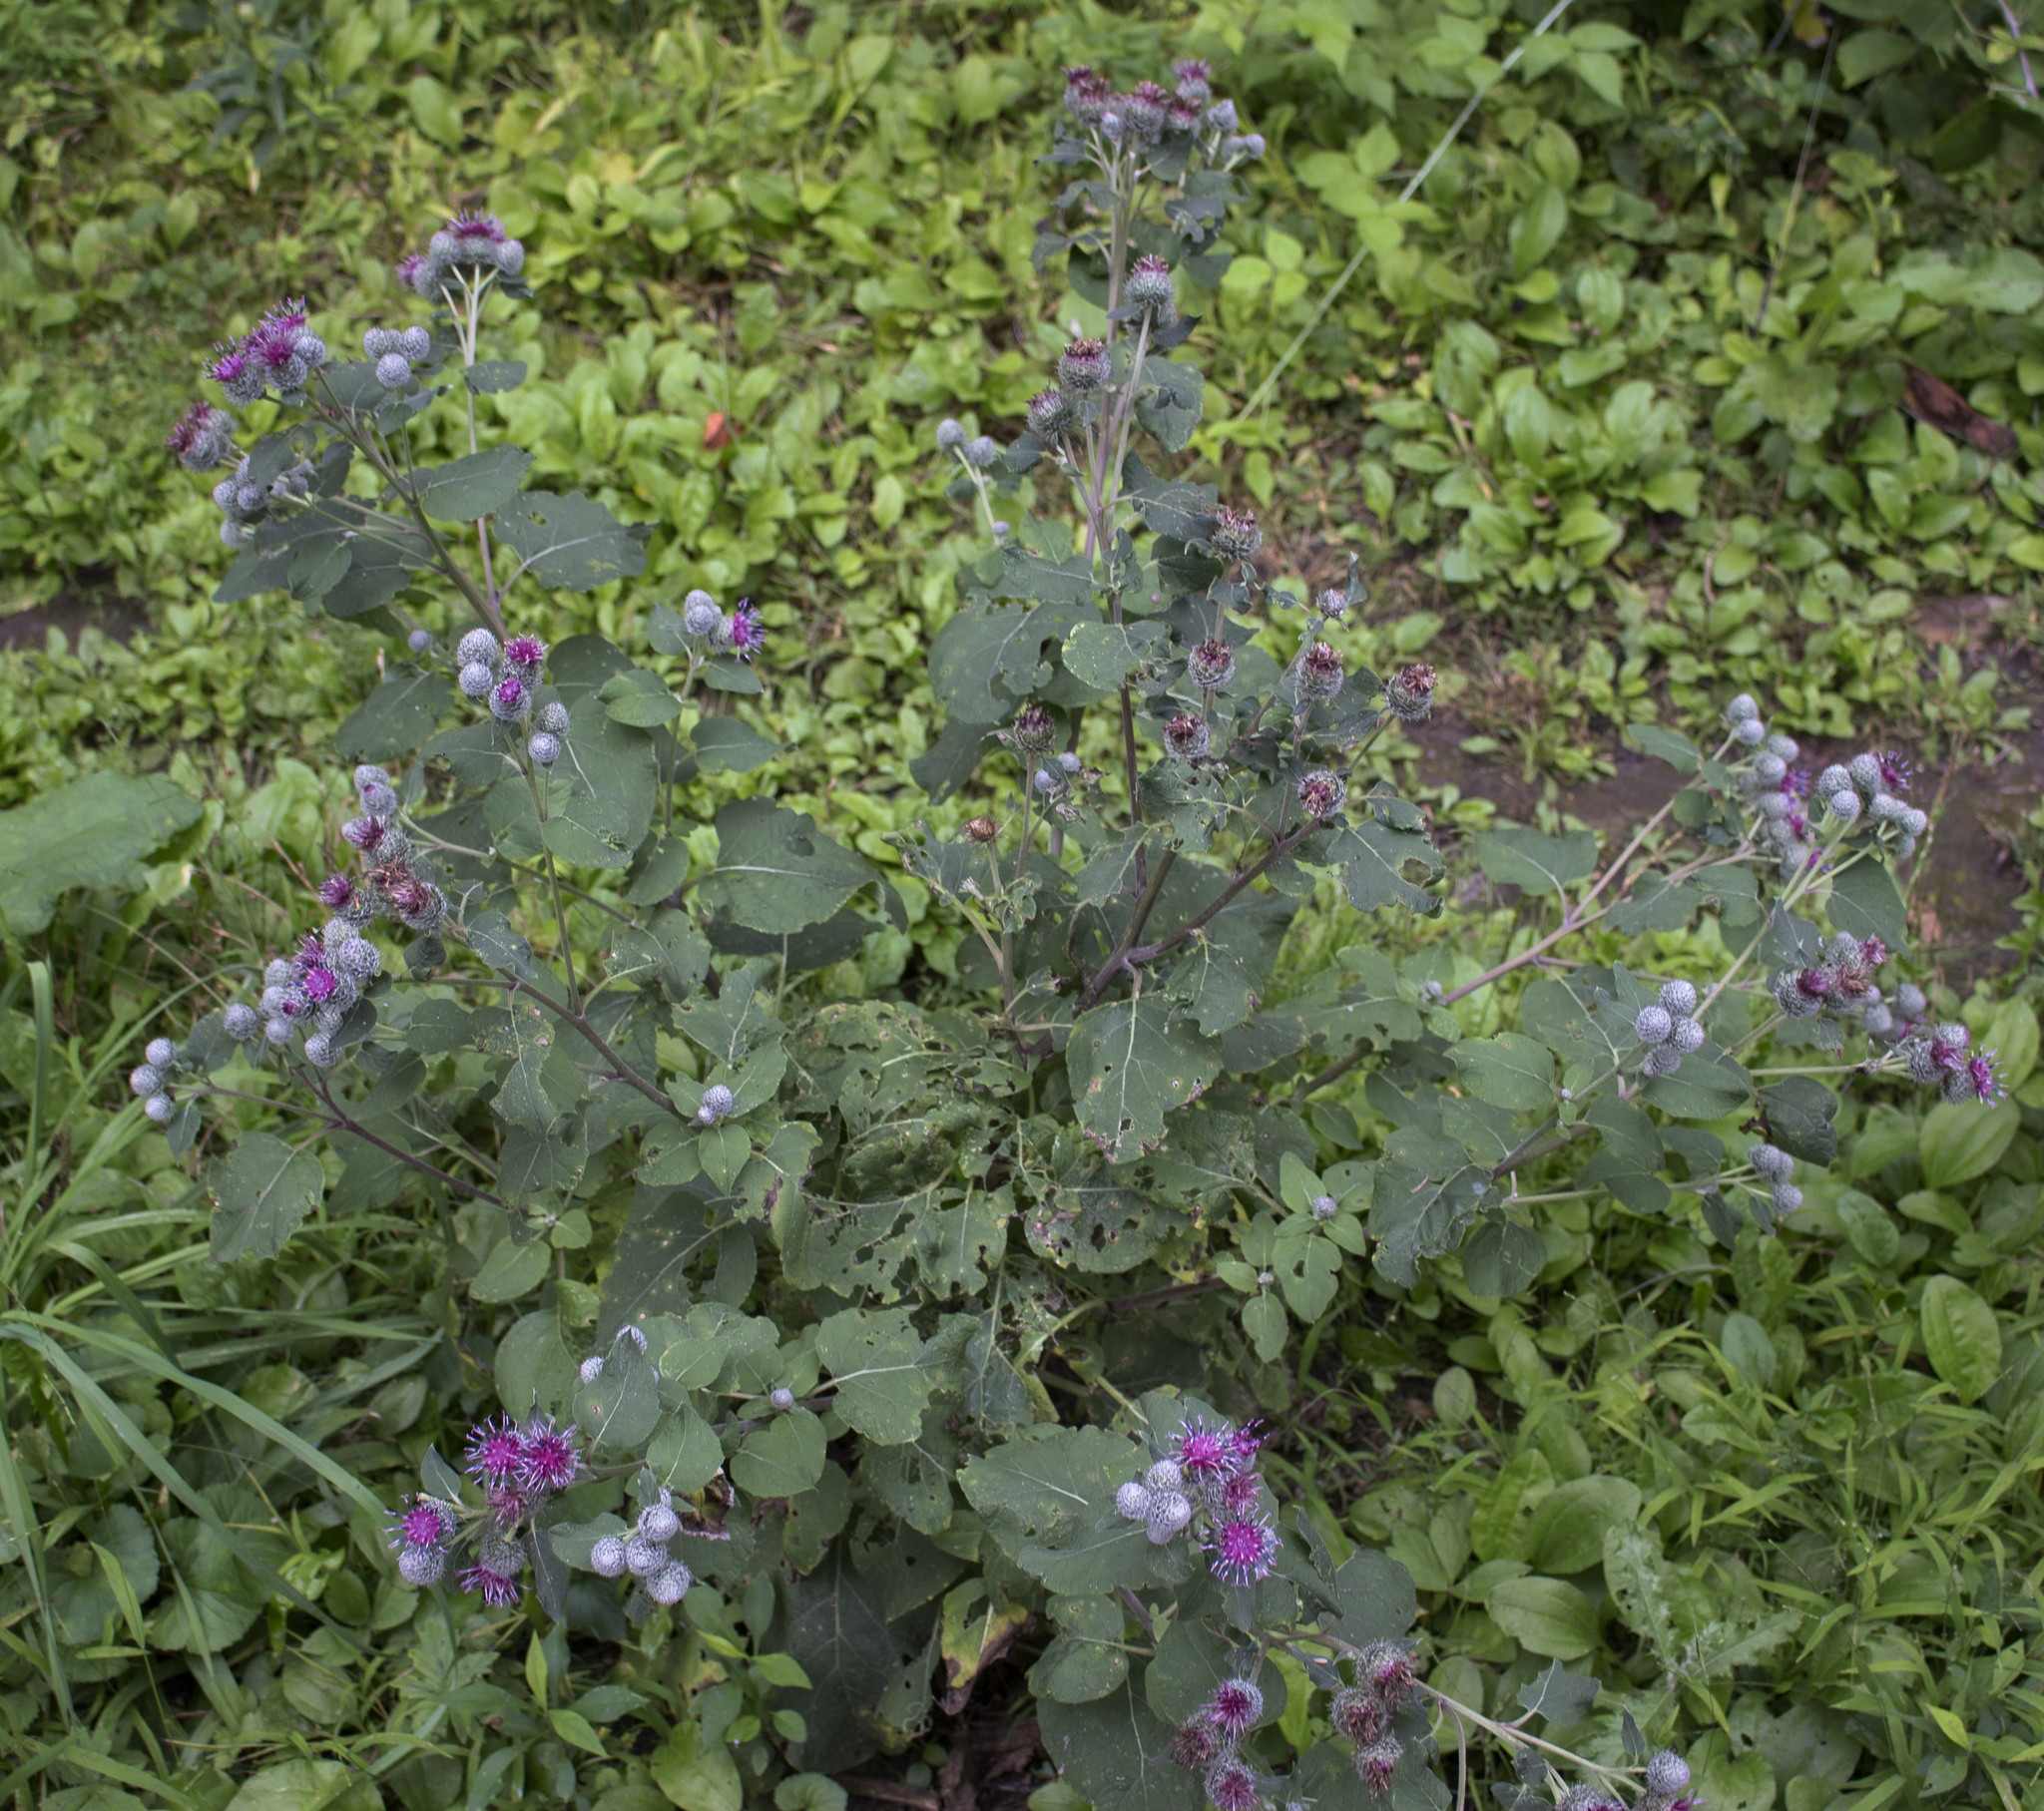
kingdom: Plantae
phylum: Tracheophyta
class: Magnoliopsida
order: Asterales
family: Asteraceae
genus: Arctium
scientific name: Arctium tomentosum
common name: Woolly burdock
